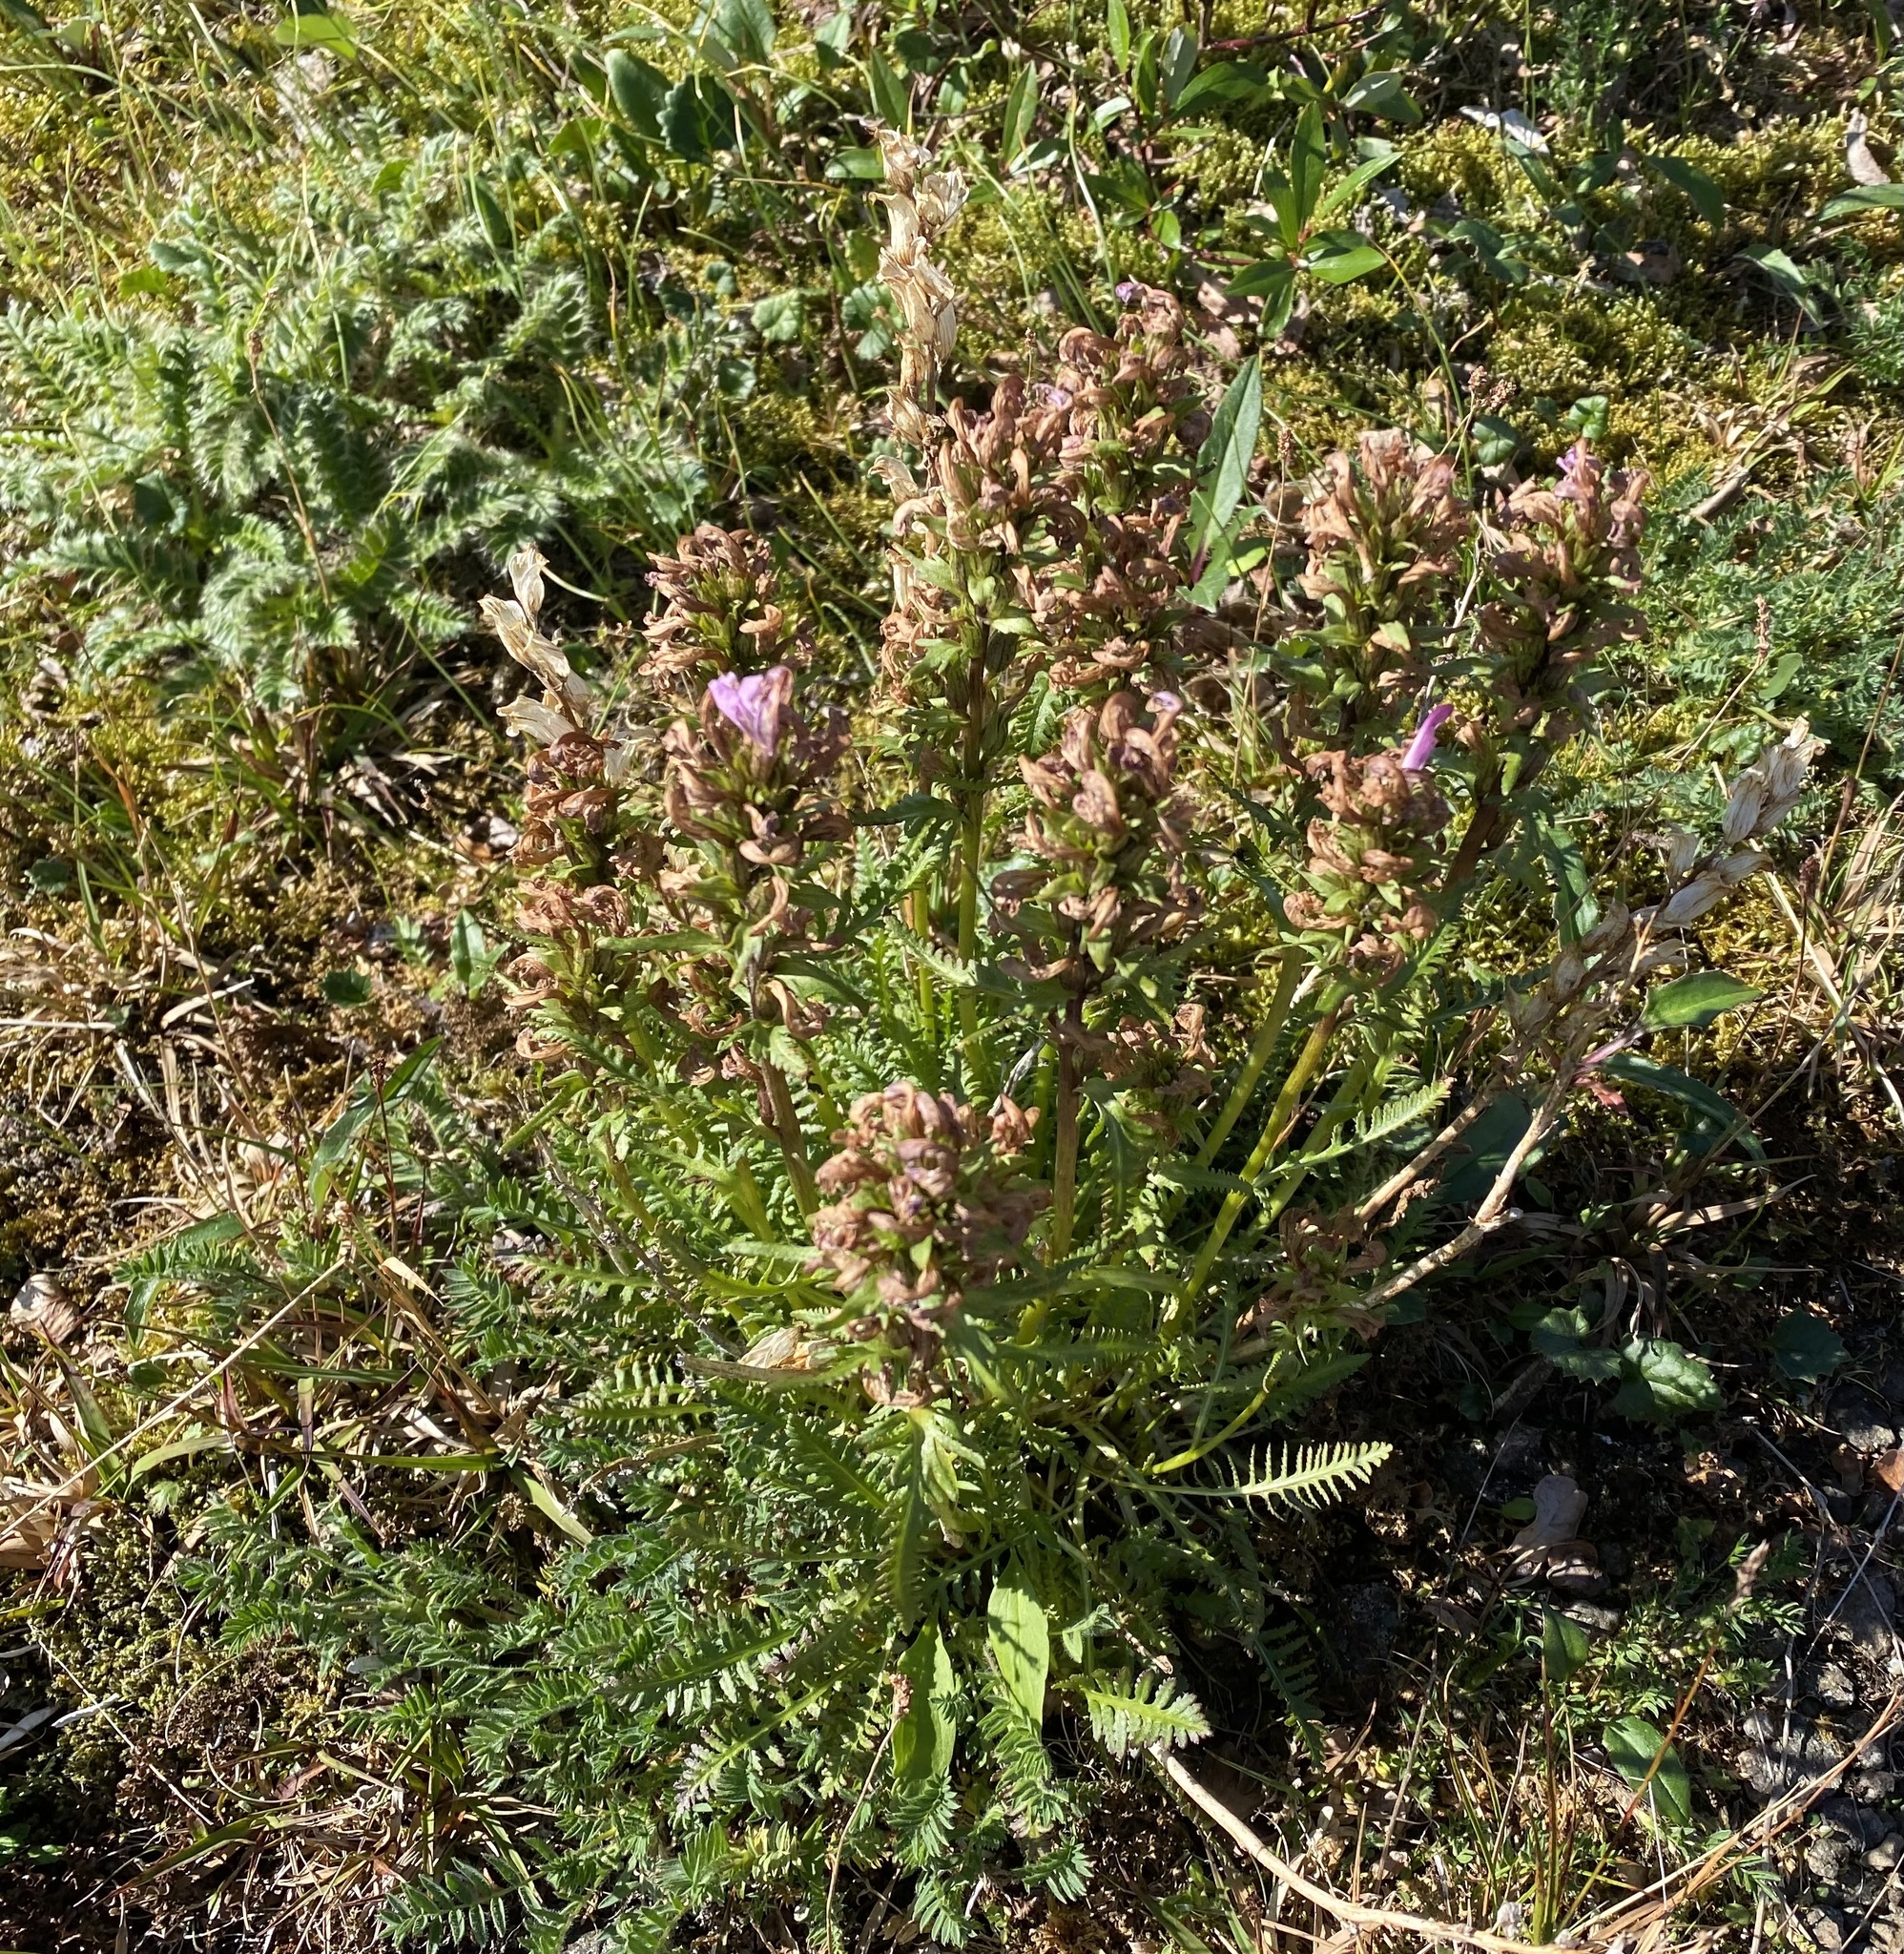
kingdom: Plantae
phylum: Tracheophyta
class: Magnoliopsida
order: Lamiales
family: Orobanchaceae
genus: Pedicularis
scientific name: Pedicularis interior
